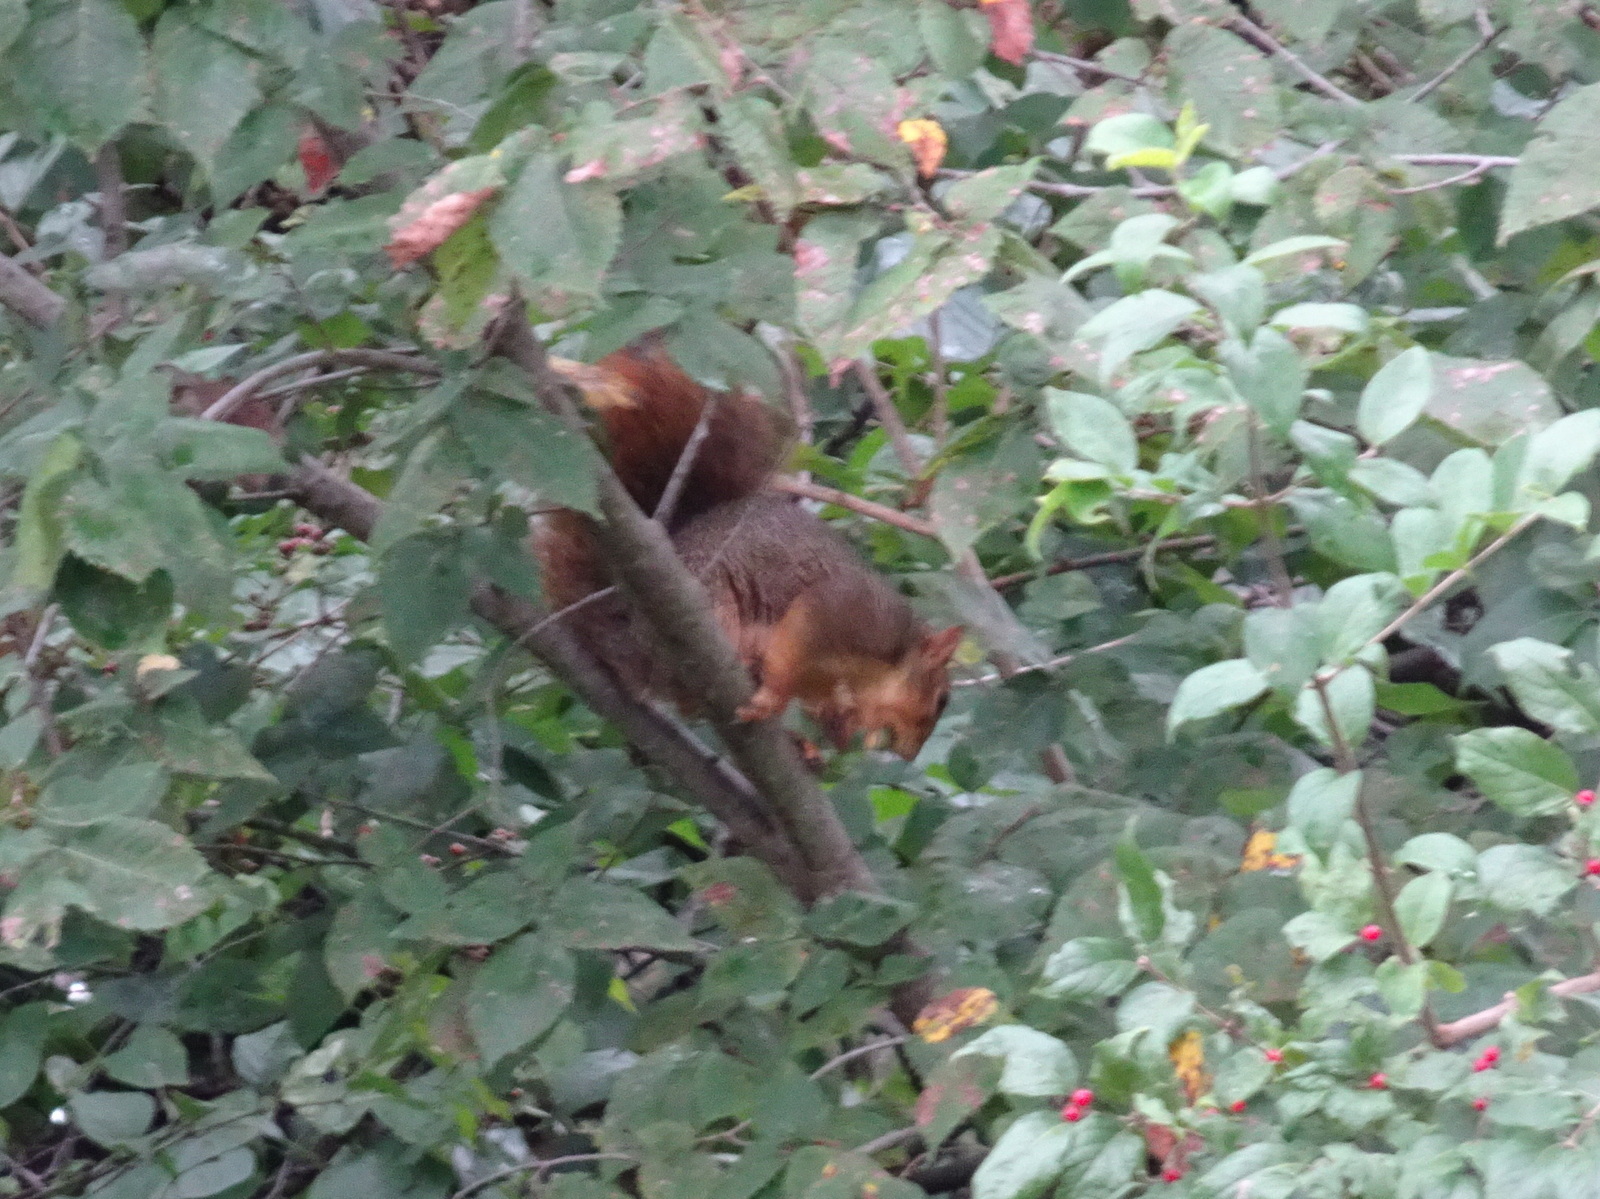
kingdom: Animalia
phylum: Chordata
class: Mammalia
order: Rodentia
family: Sciuridae
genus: Sciurus
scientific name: Sciurus niger
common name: Fox squirrel
